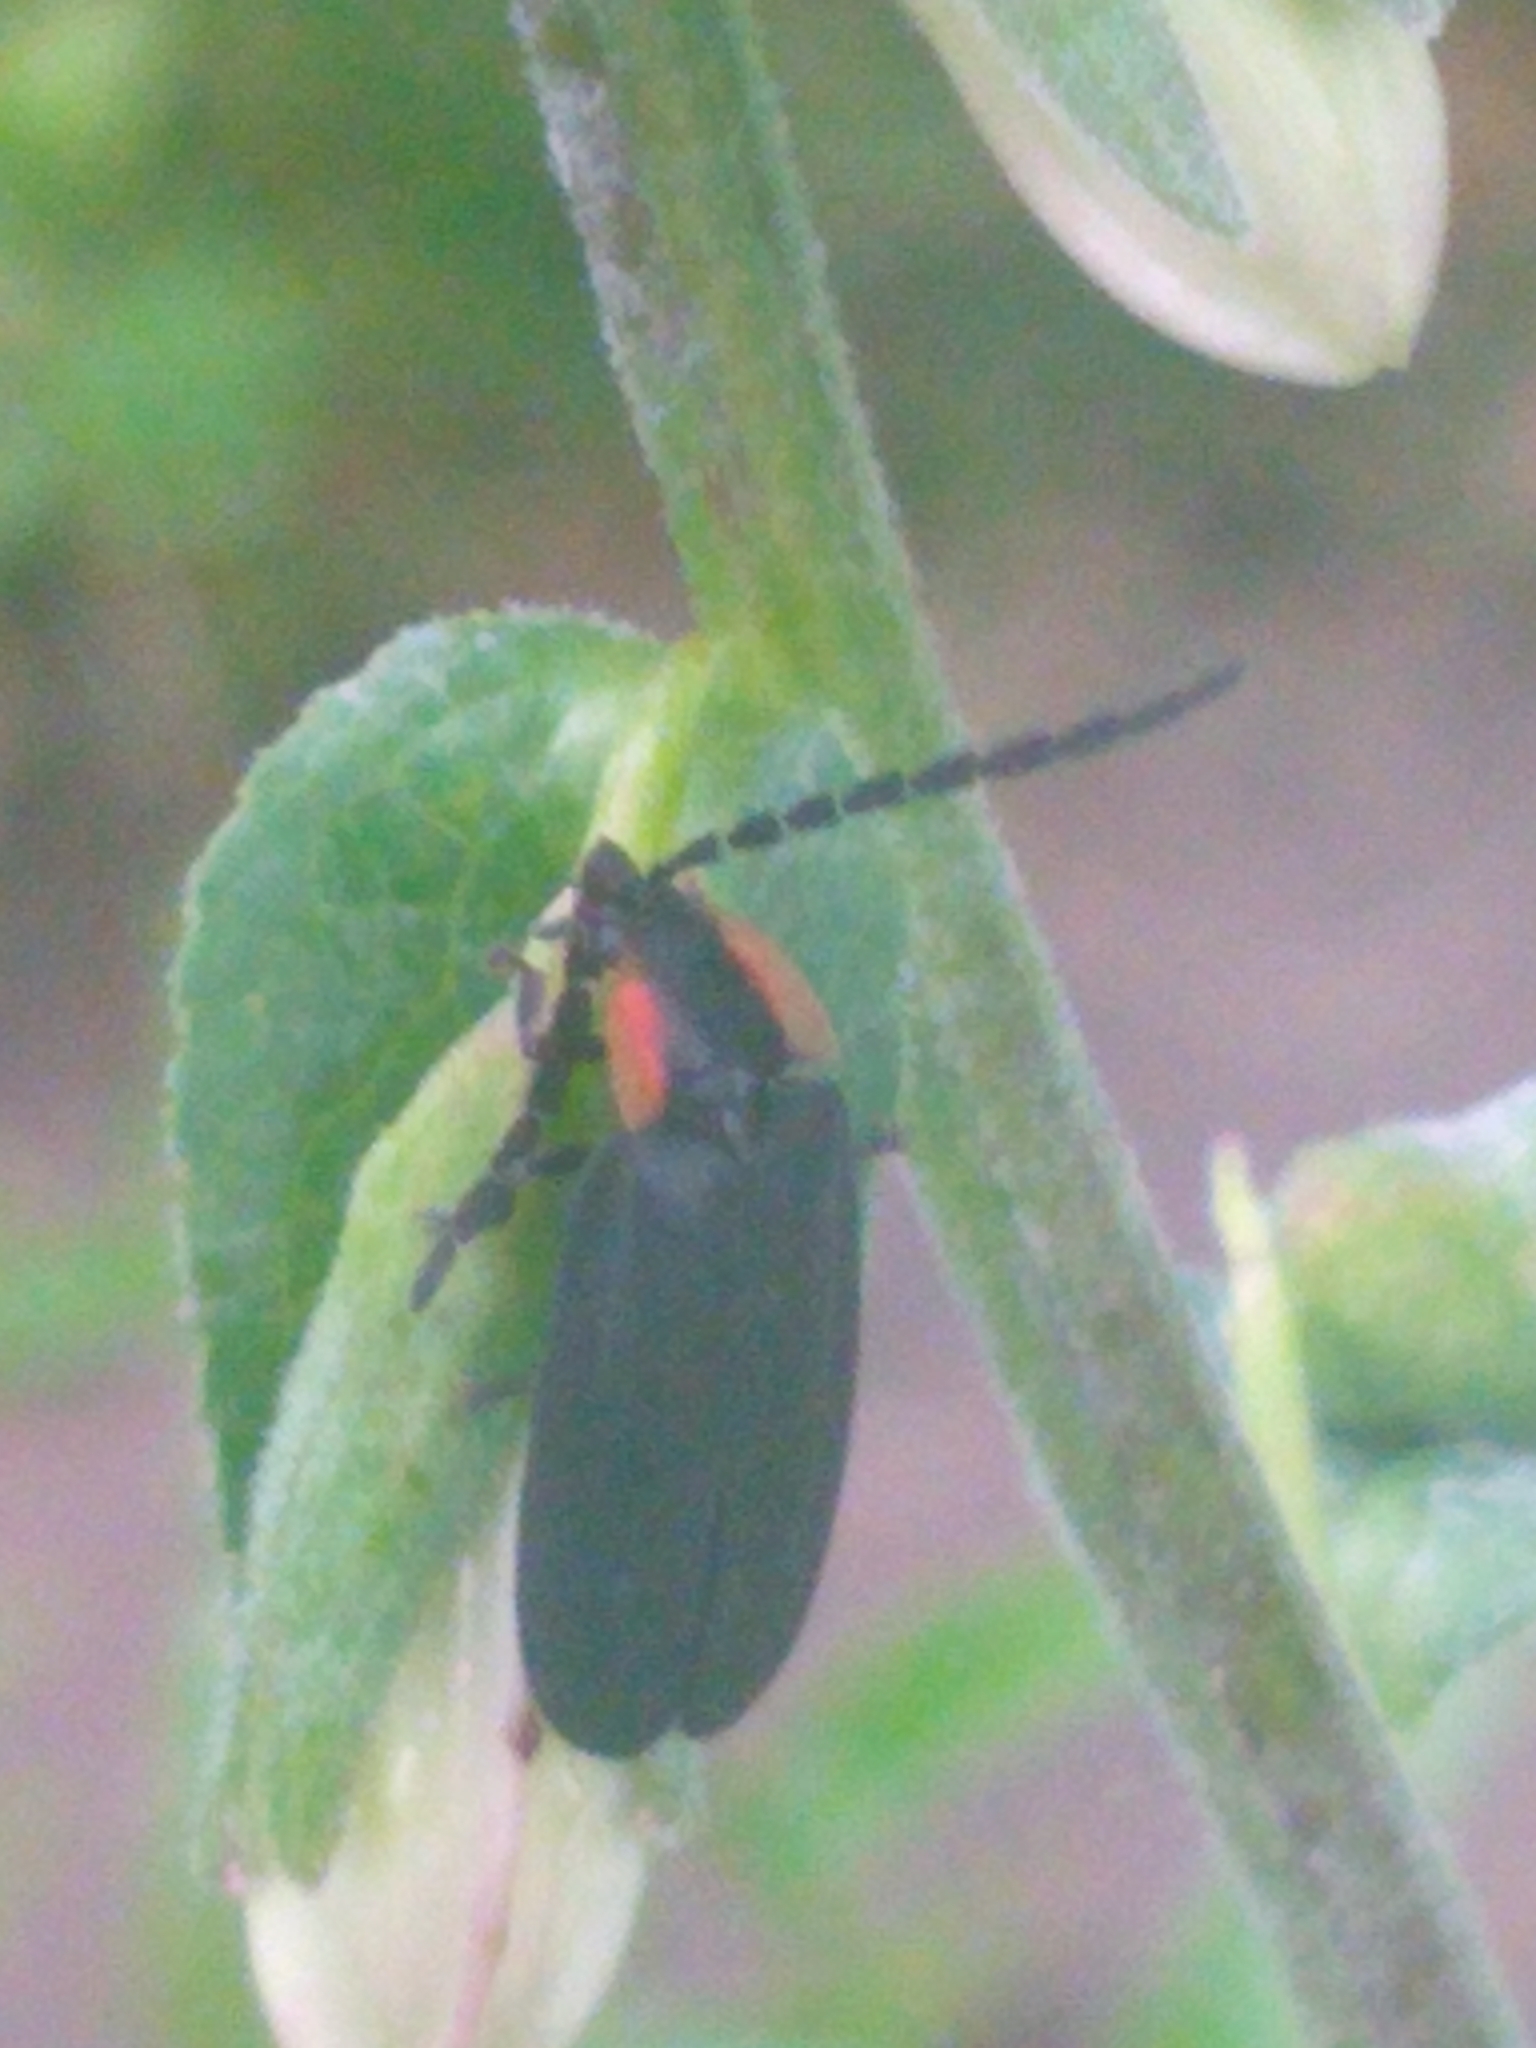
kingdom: Animalia
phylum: Arthropoda
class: Insecta
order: Coleoptera
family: Lampyridae
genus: Lucidota
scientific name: Lucidota atra
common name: Black firefly
